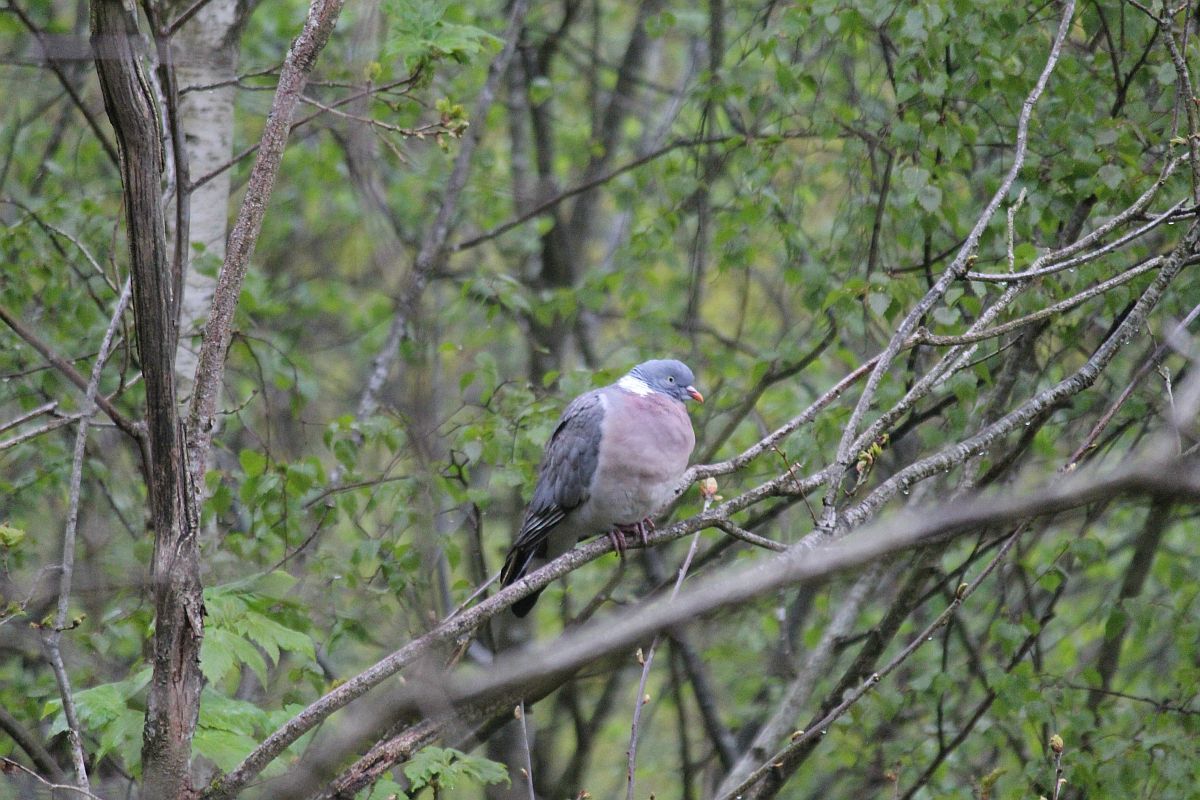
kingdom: Animalia
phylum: Chordata
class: Aves
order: Columbiformes
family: Columbidae
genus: Columba
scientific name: Columba palumbus
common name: Common wood pigeon
